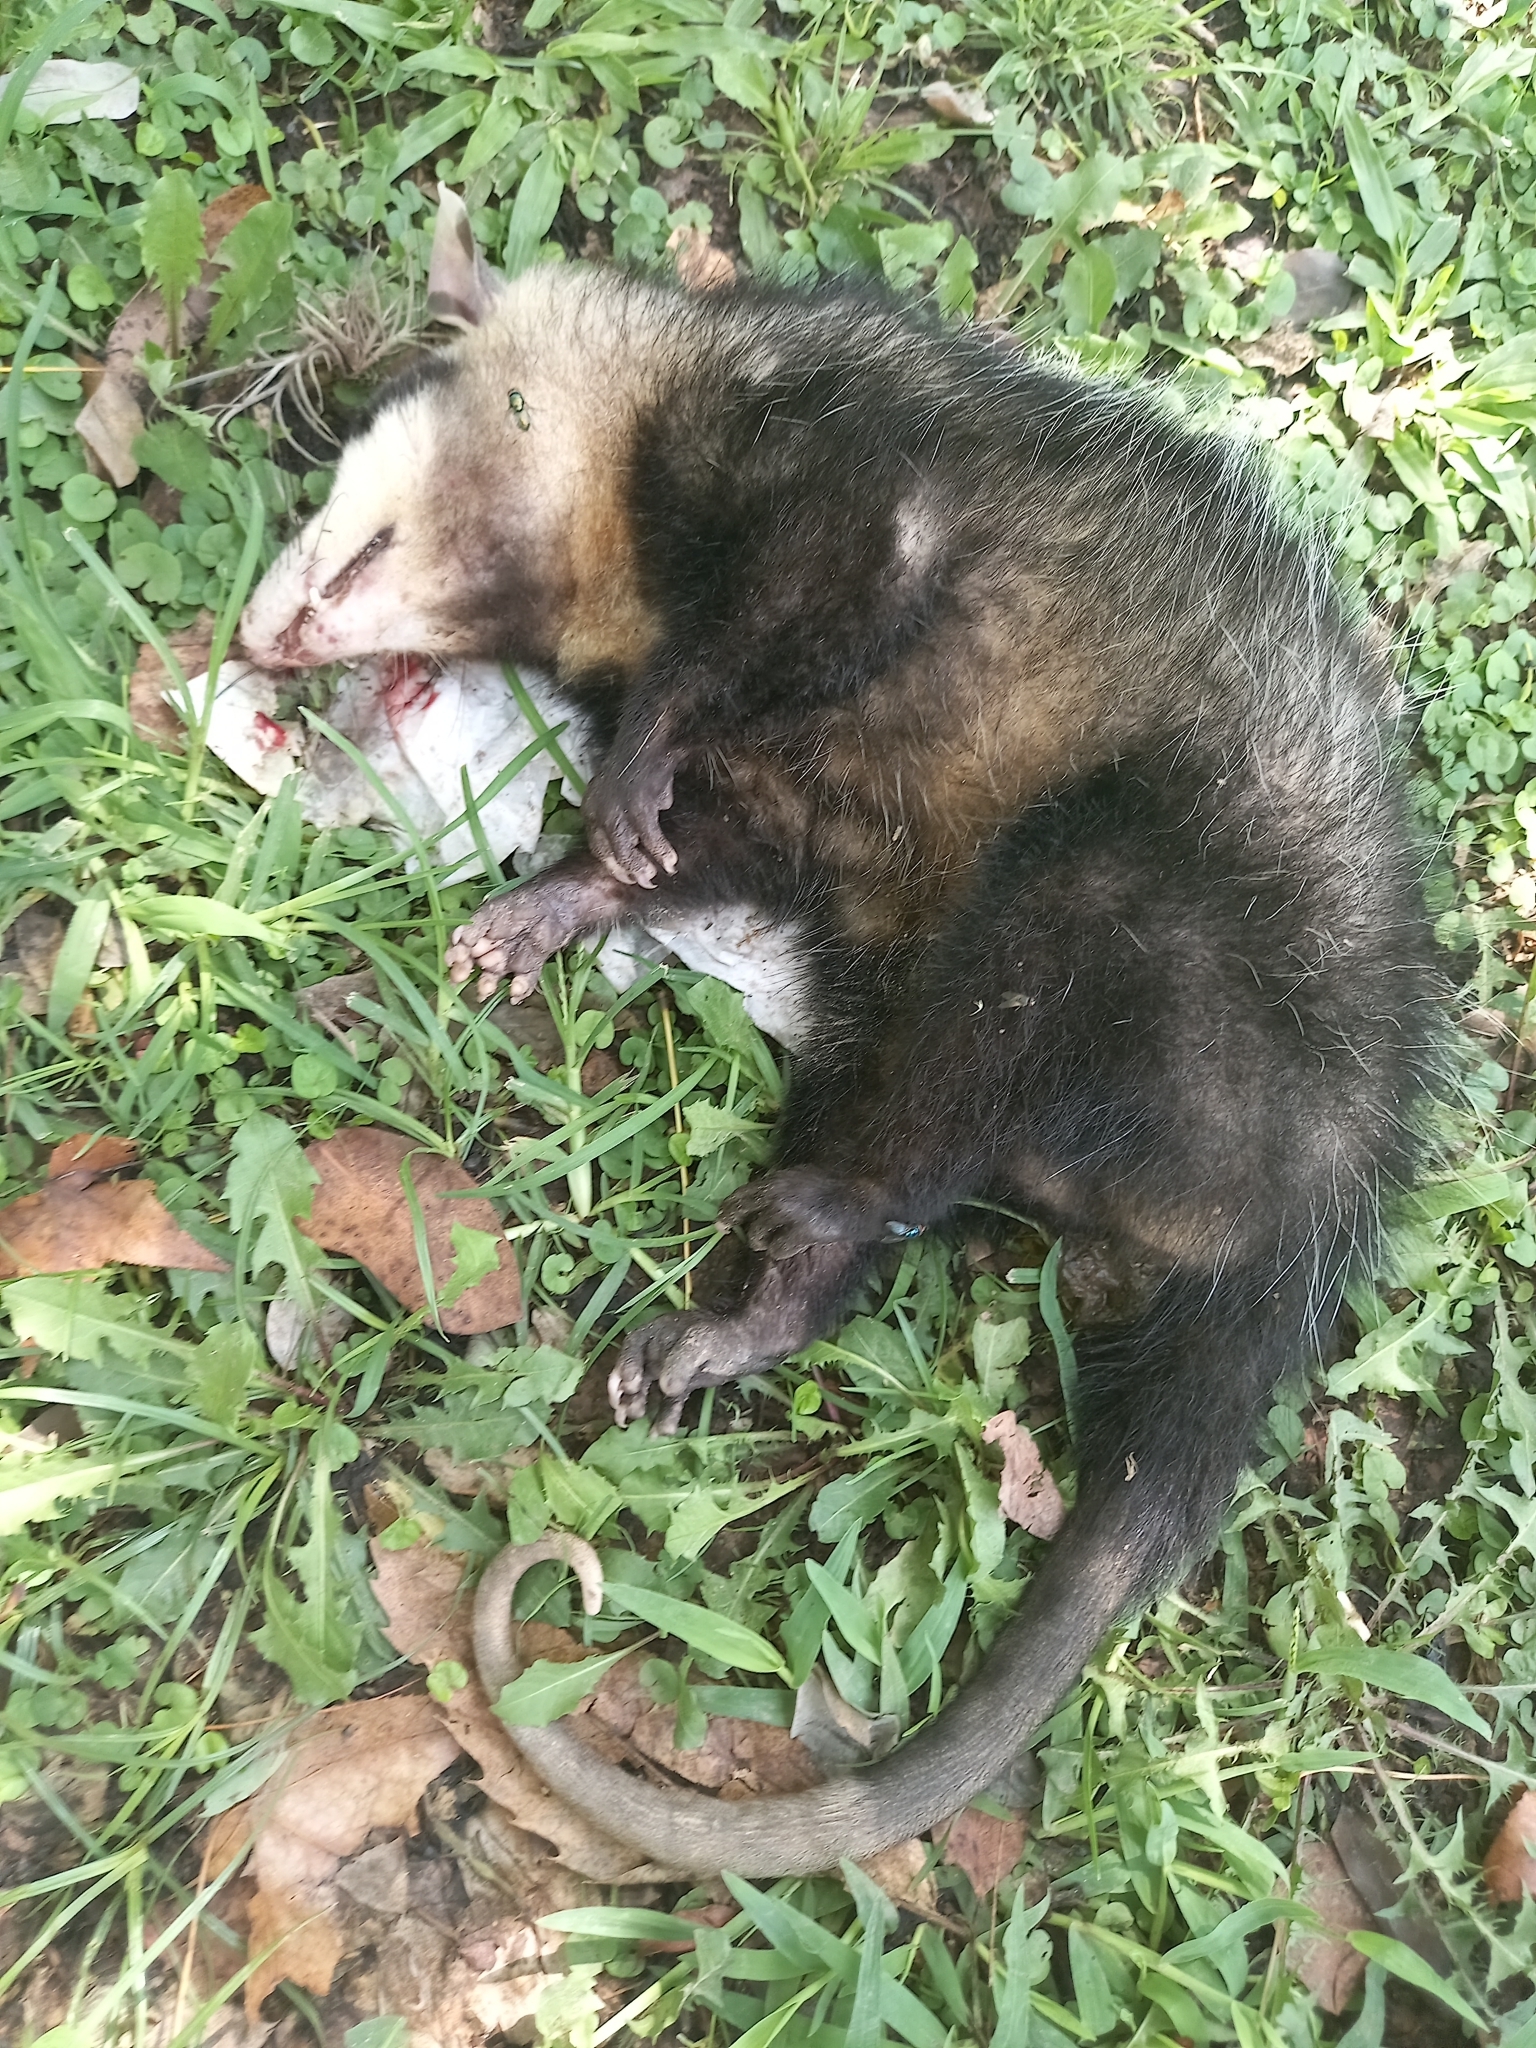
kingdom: Animalia
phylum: Chordata
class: Mammalia
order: Didelphimorphia
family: Didelphidae
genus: Didelphis
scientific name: Didelphis albiventris
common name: White-eared opossum
